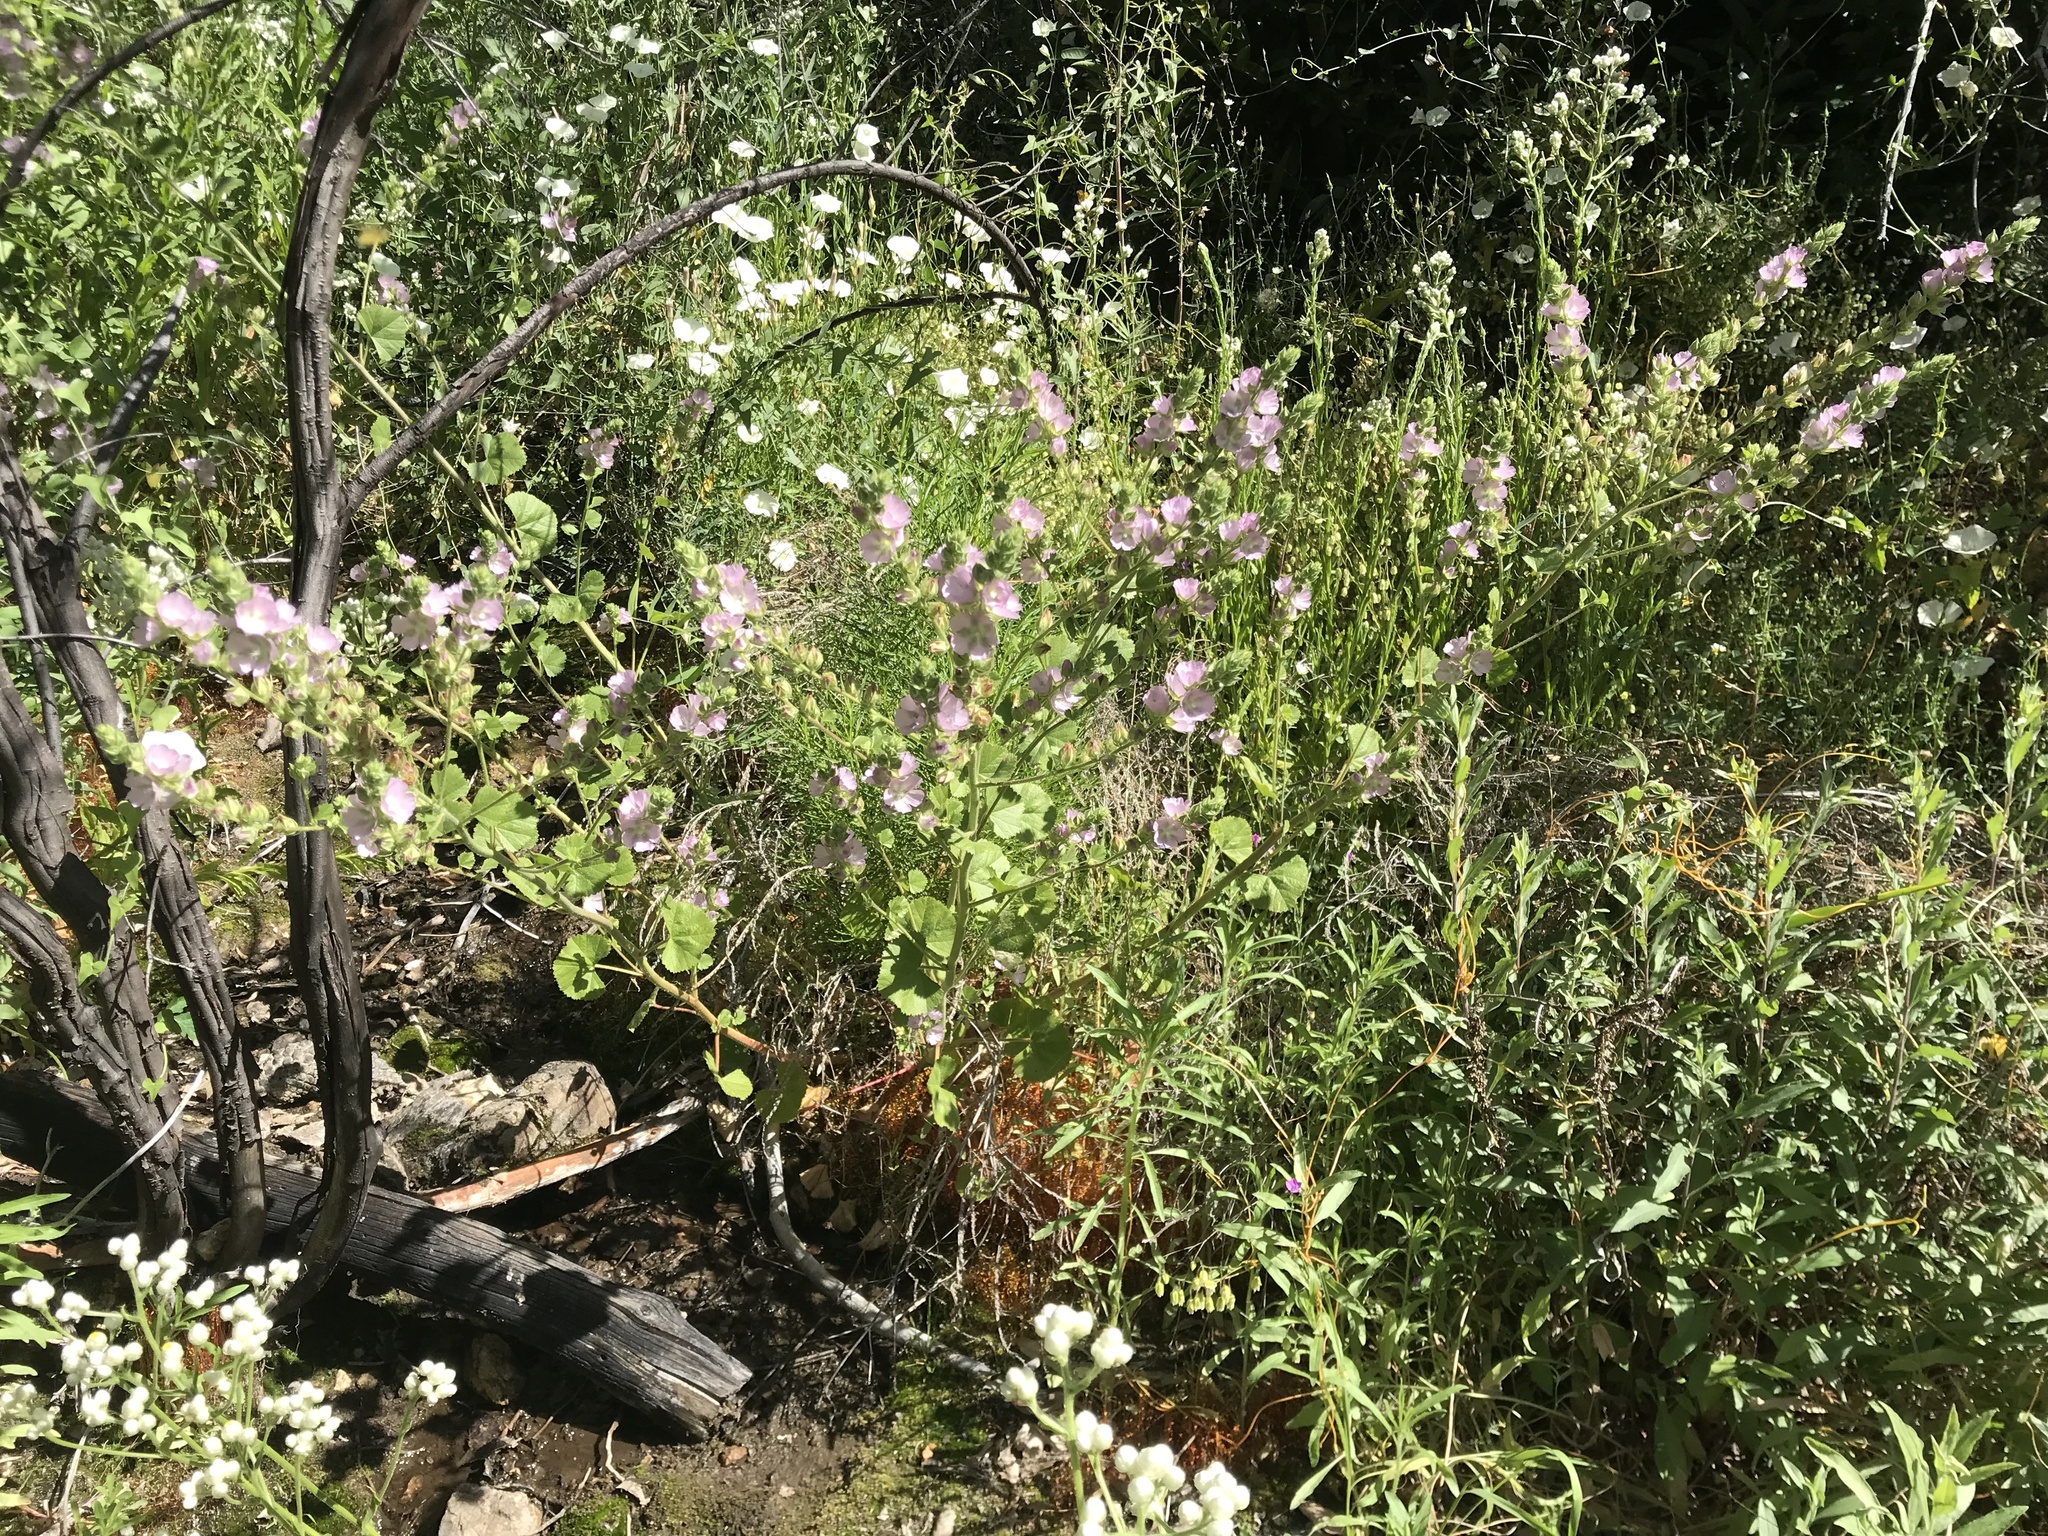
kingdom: Plantae
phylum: Tracheophyta
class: Magnoliopsida
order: Malvales
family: Malvaceae
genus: Sidalcea
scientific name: Sidalcea hickmanii
